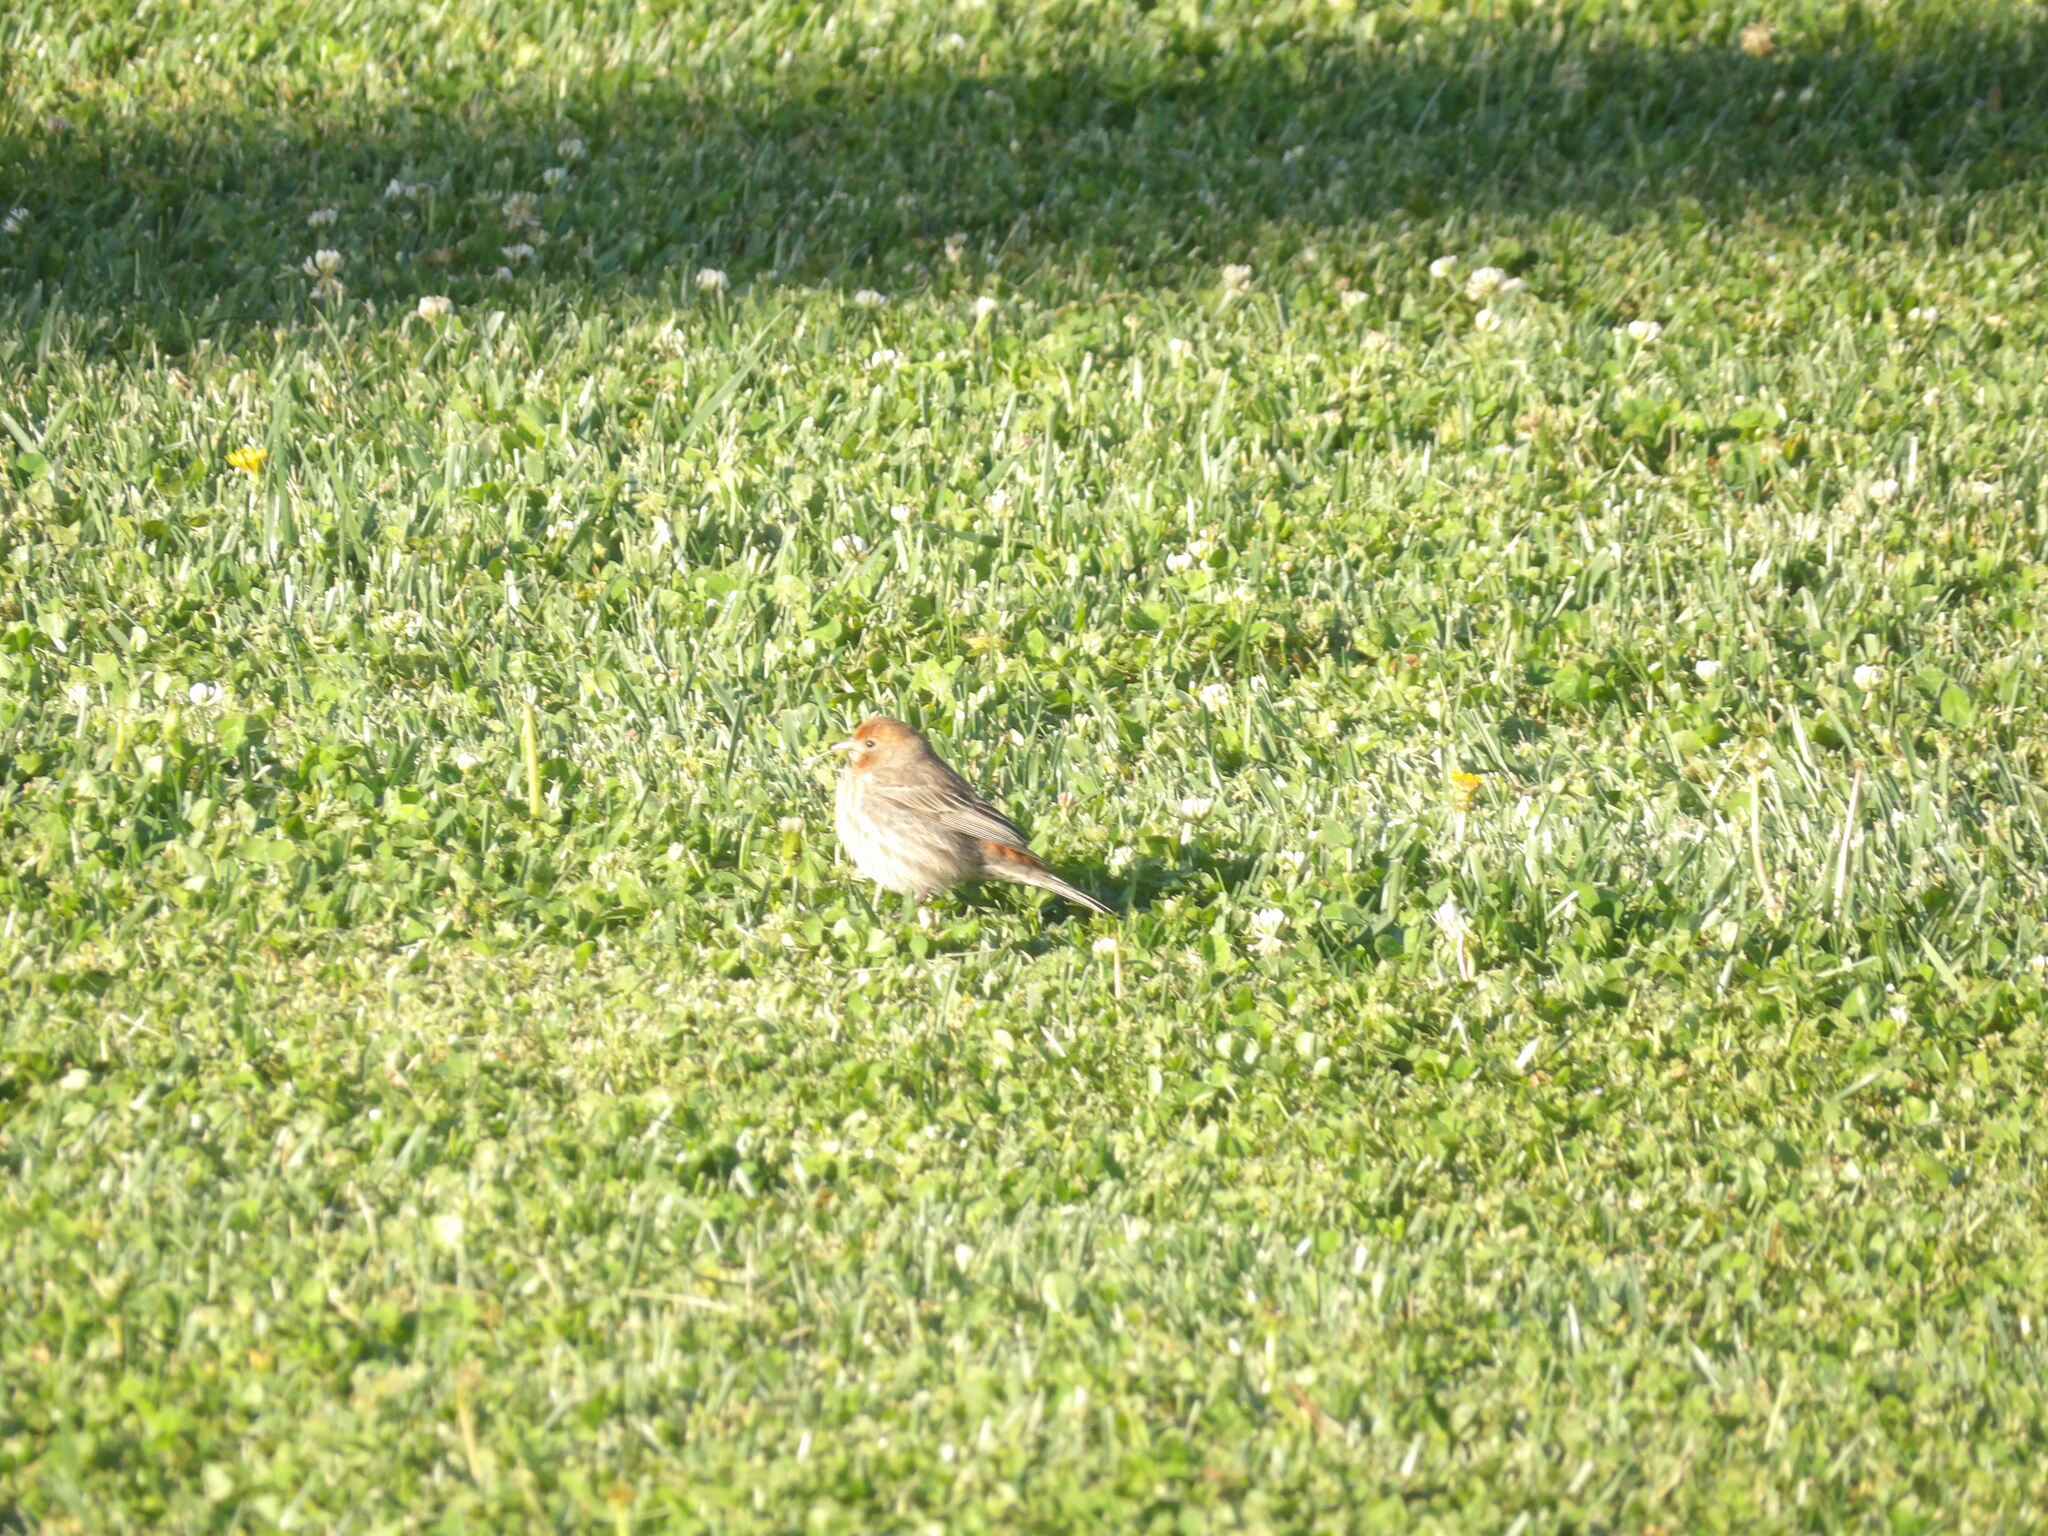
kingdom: Animalia
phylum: Chordata
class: Aves
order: Passeriformes
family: Fringillidae
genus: Haemorhous
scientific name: Haemorhous mexicanus
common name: House finch
